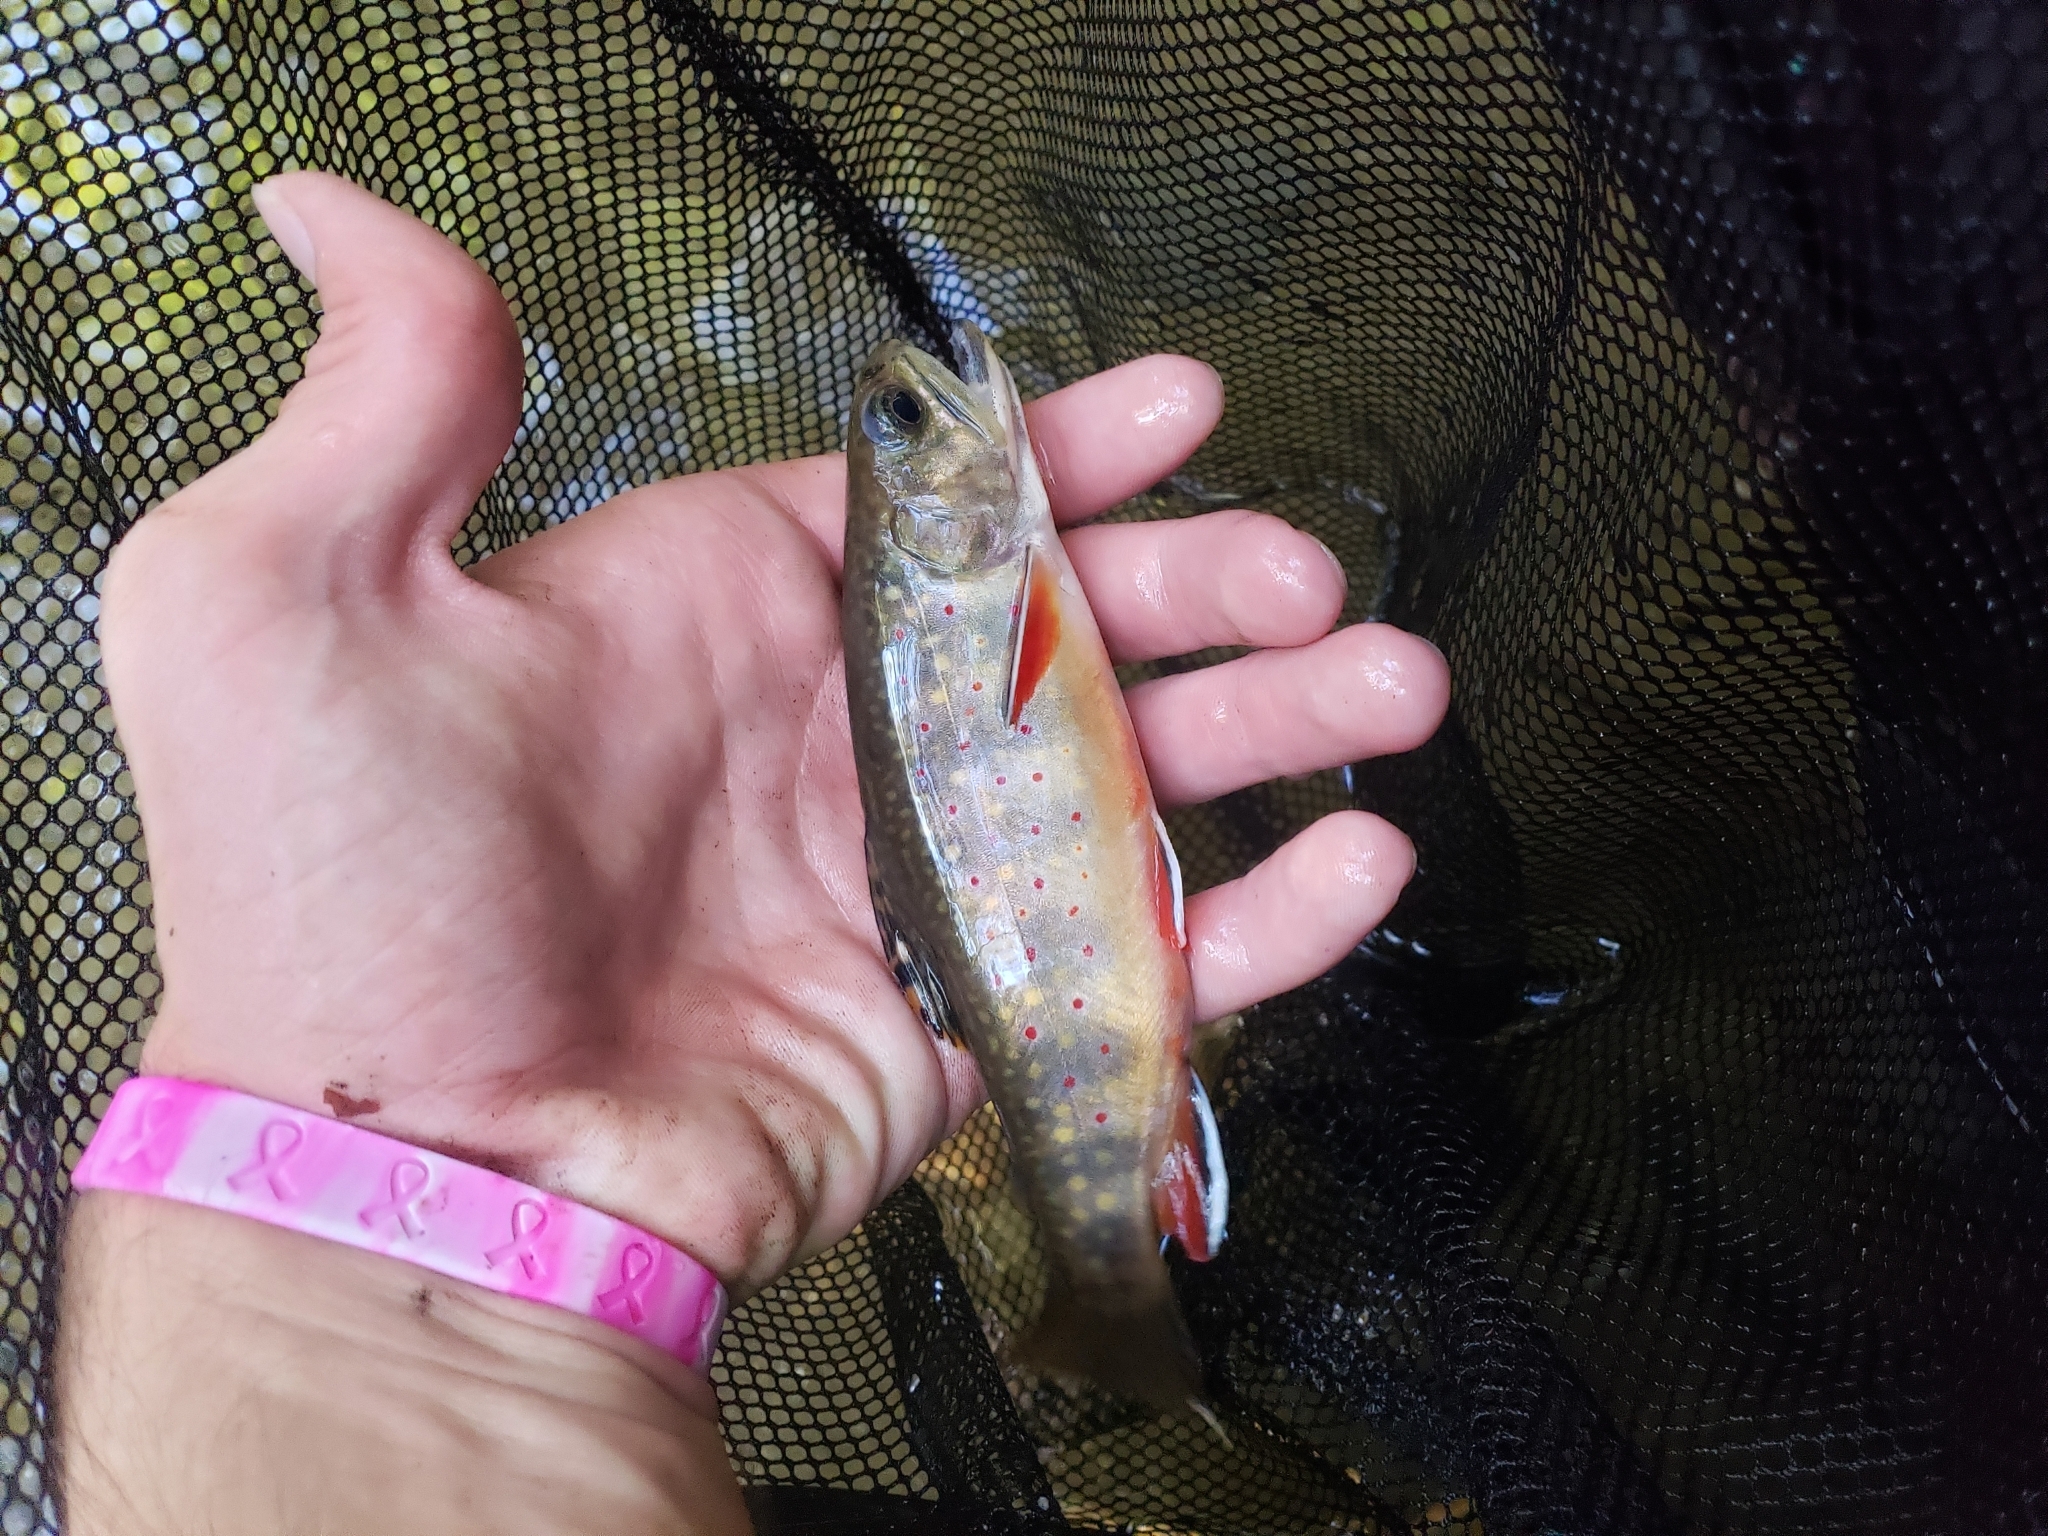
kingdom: Animalia
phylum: Chordata
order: Salmoniformes
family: Salmonidae
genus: Salvelinus
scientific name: Salvelinus fontinalis
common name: Brook trout
